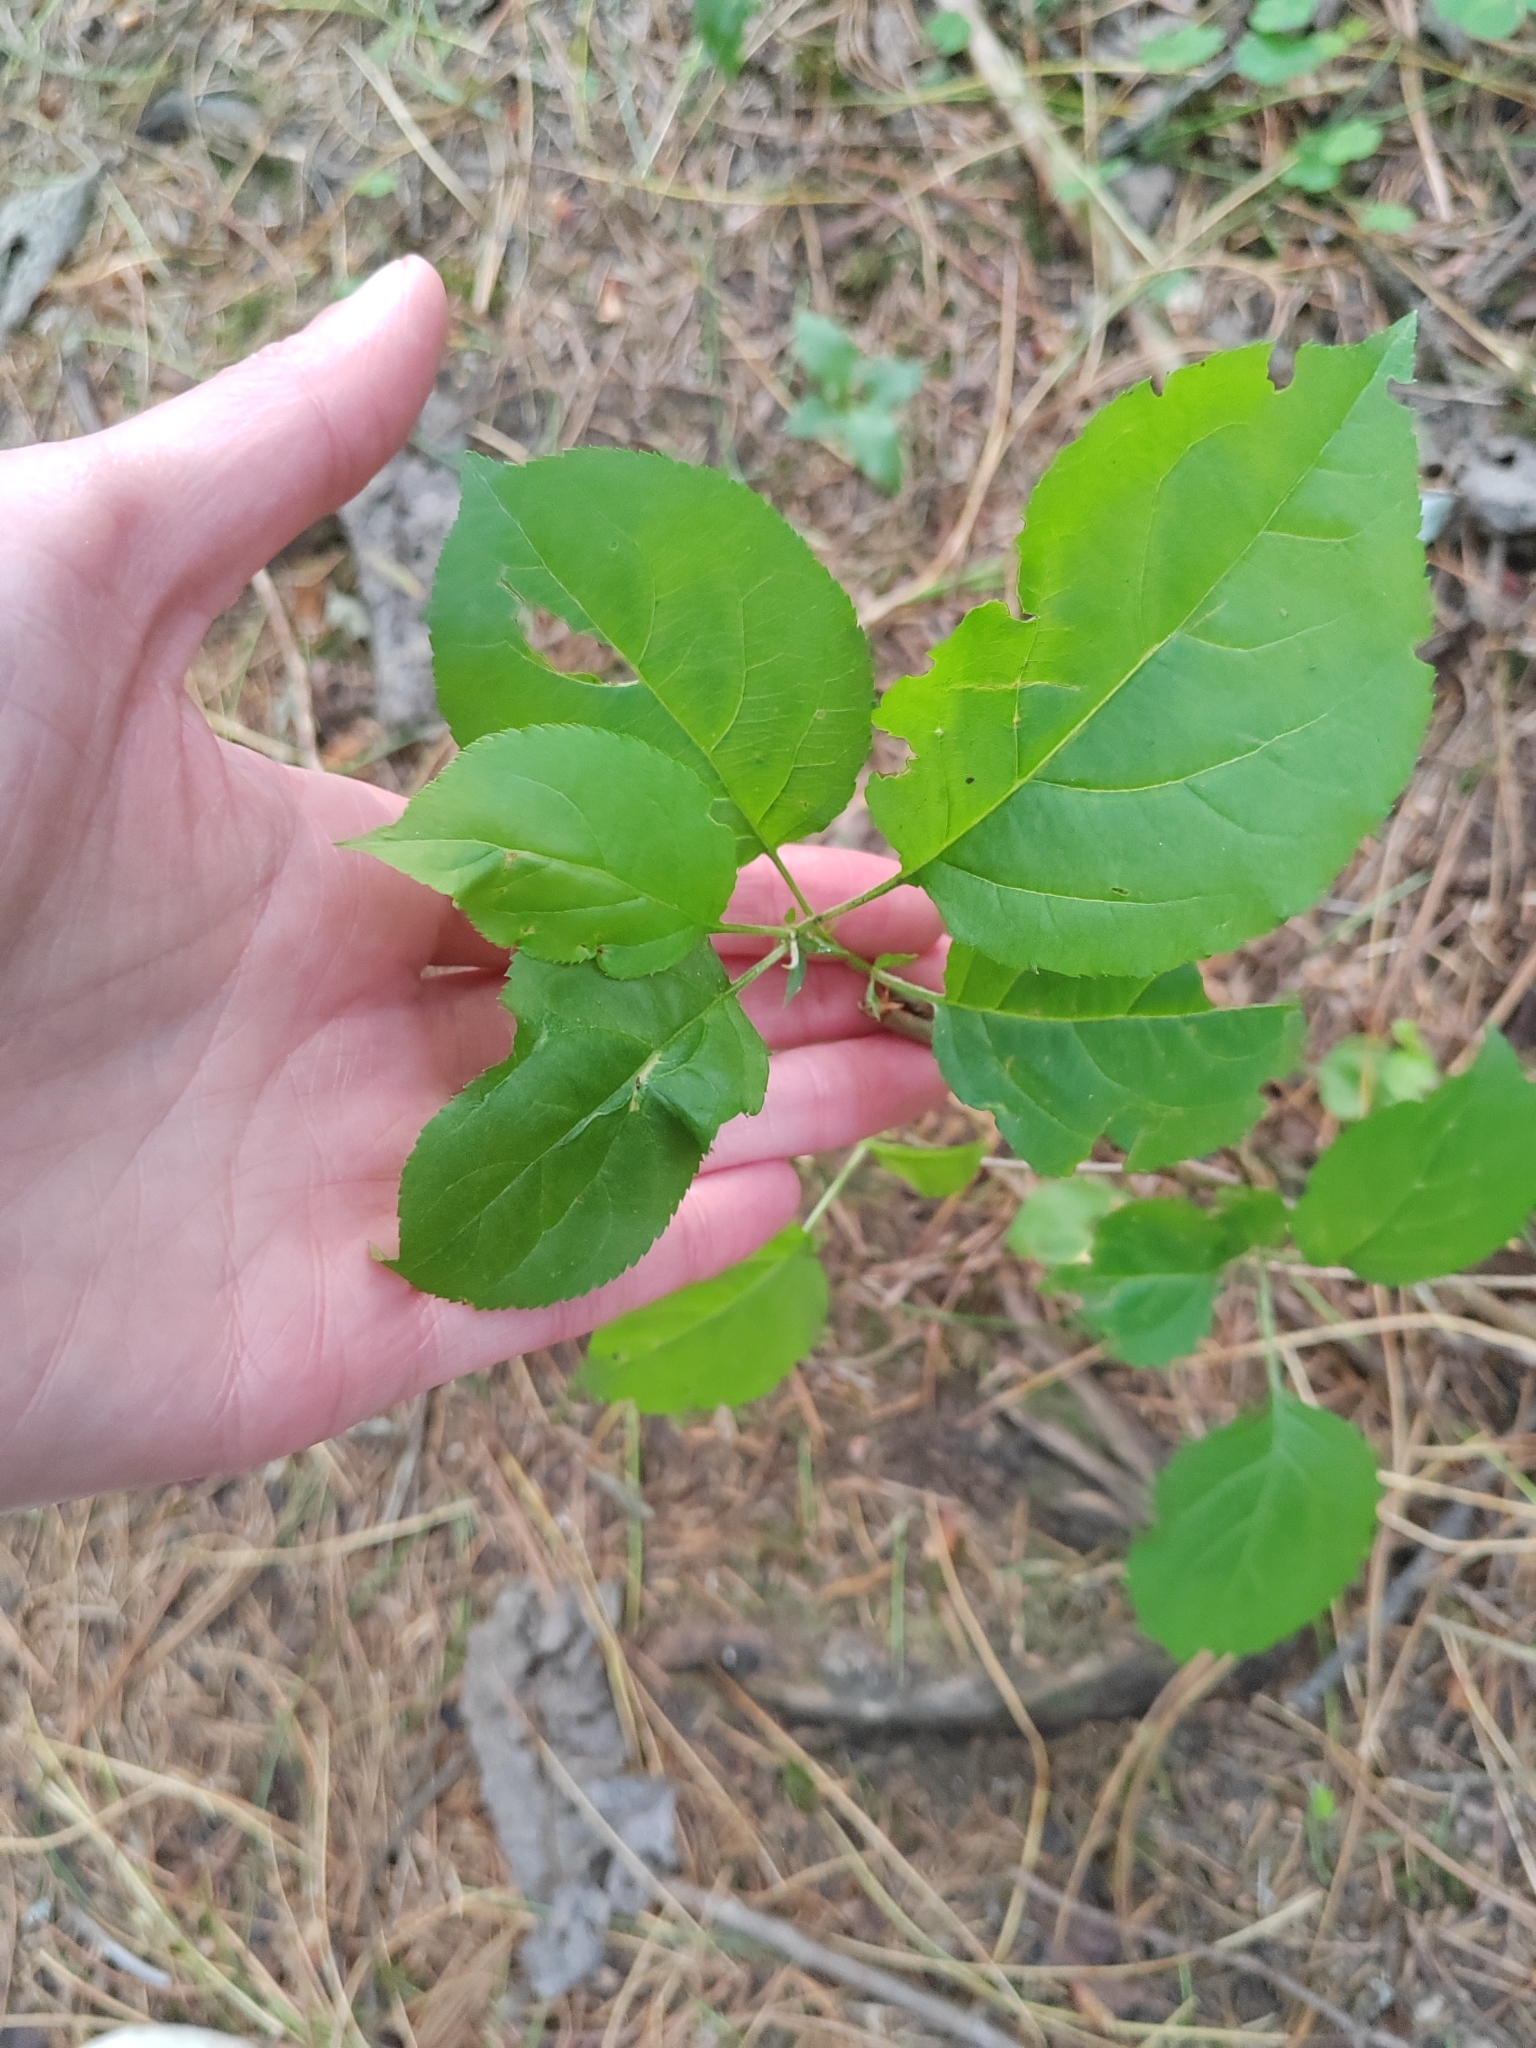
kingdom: Plantae
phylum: Tracheophyta
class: Magnoliopsida
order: Rosales
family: Rosaceae
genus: Malus
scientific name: Malus baccata
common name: Siberian crab
